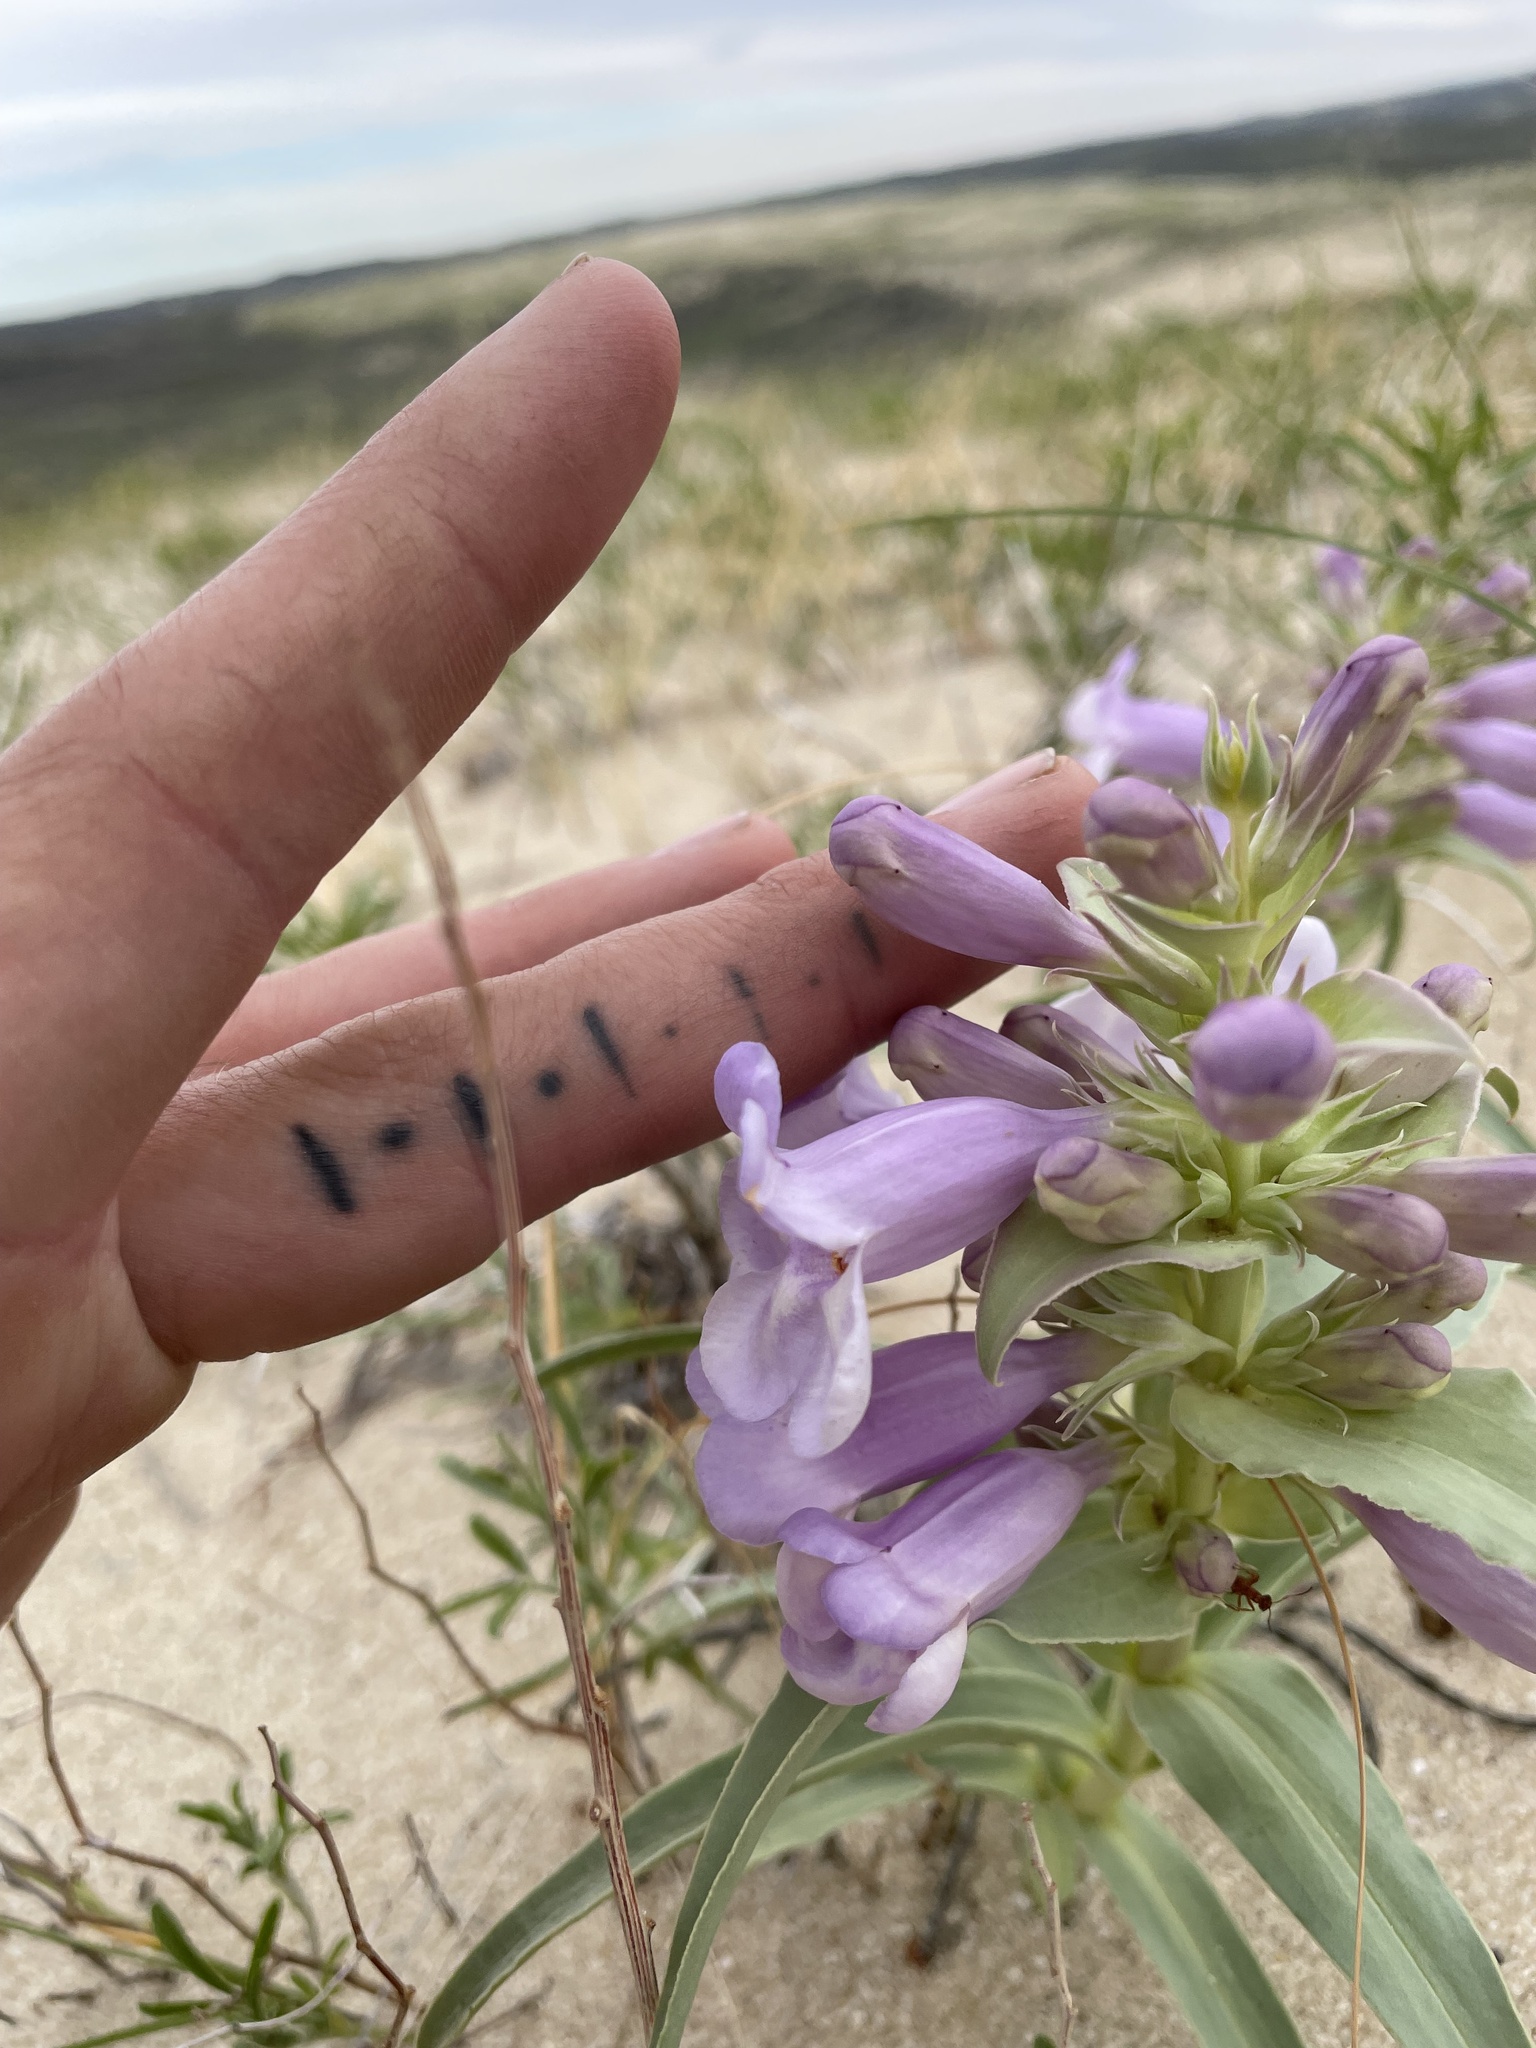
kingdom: Plantae
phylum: Tracheophyta
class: Magnoliopsida
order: Lamiales
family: Plantaginaceae
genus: Penstemon
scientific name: Penstemon haydenii
